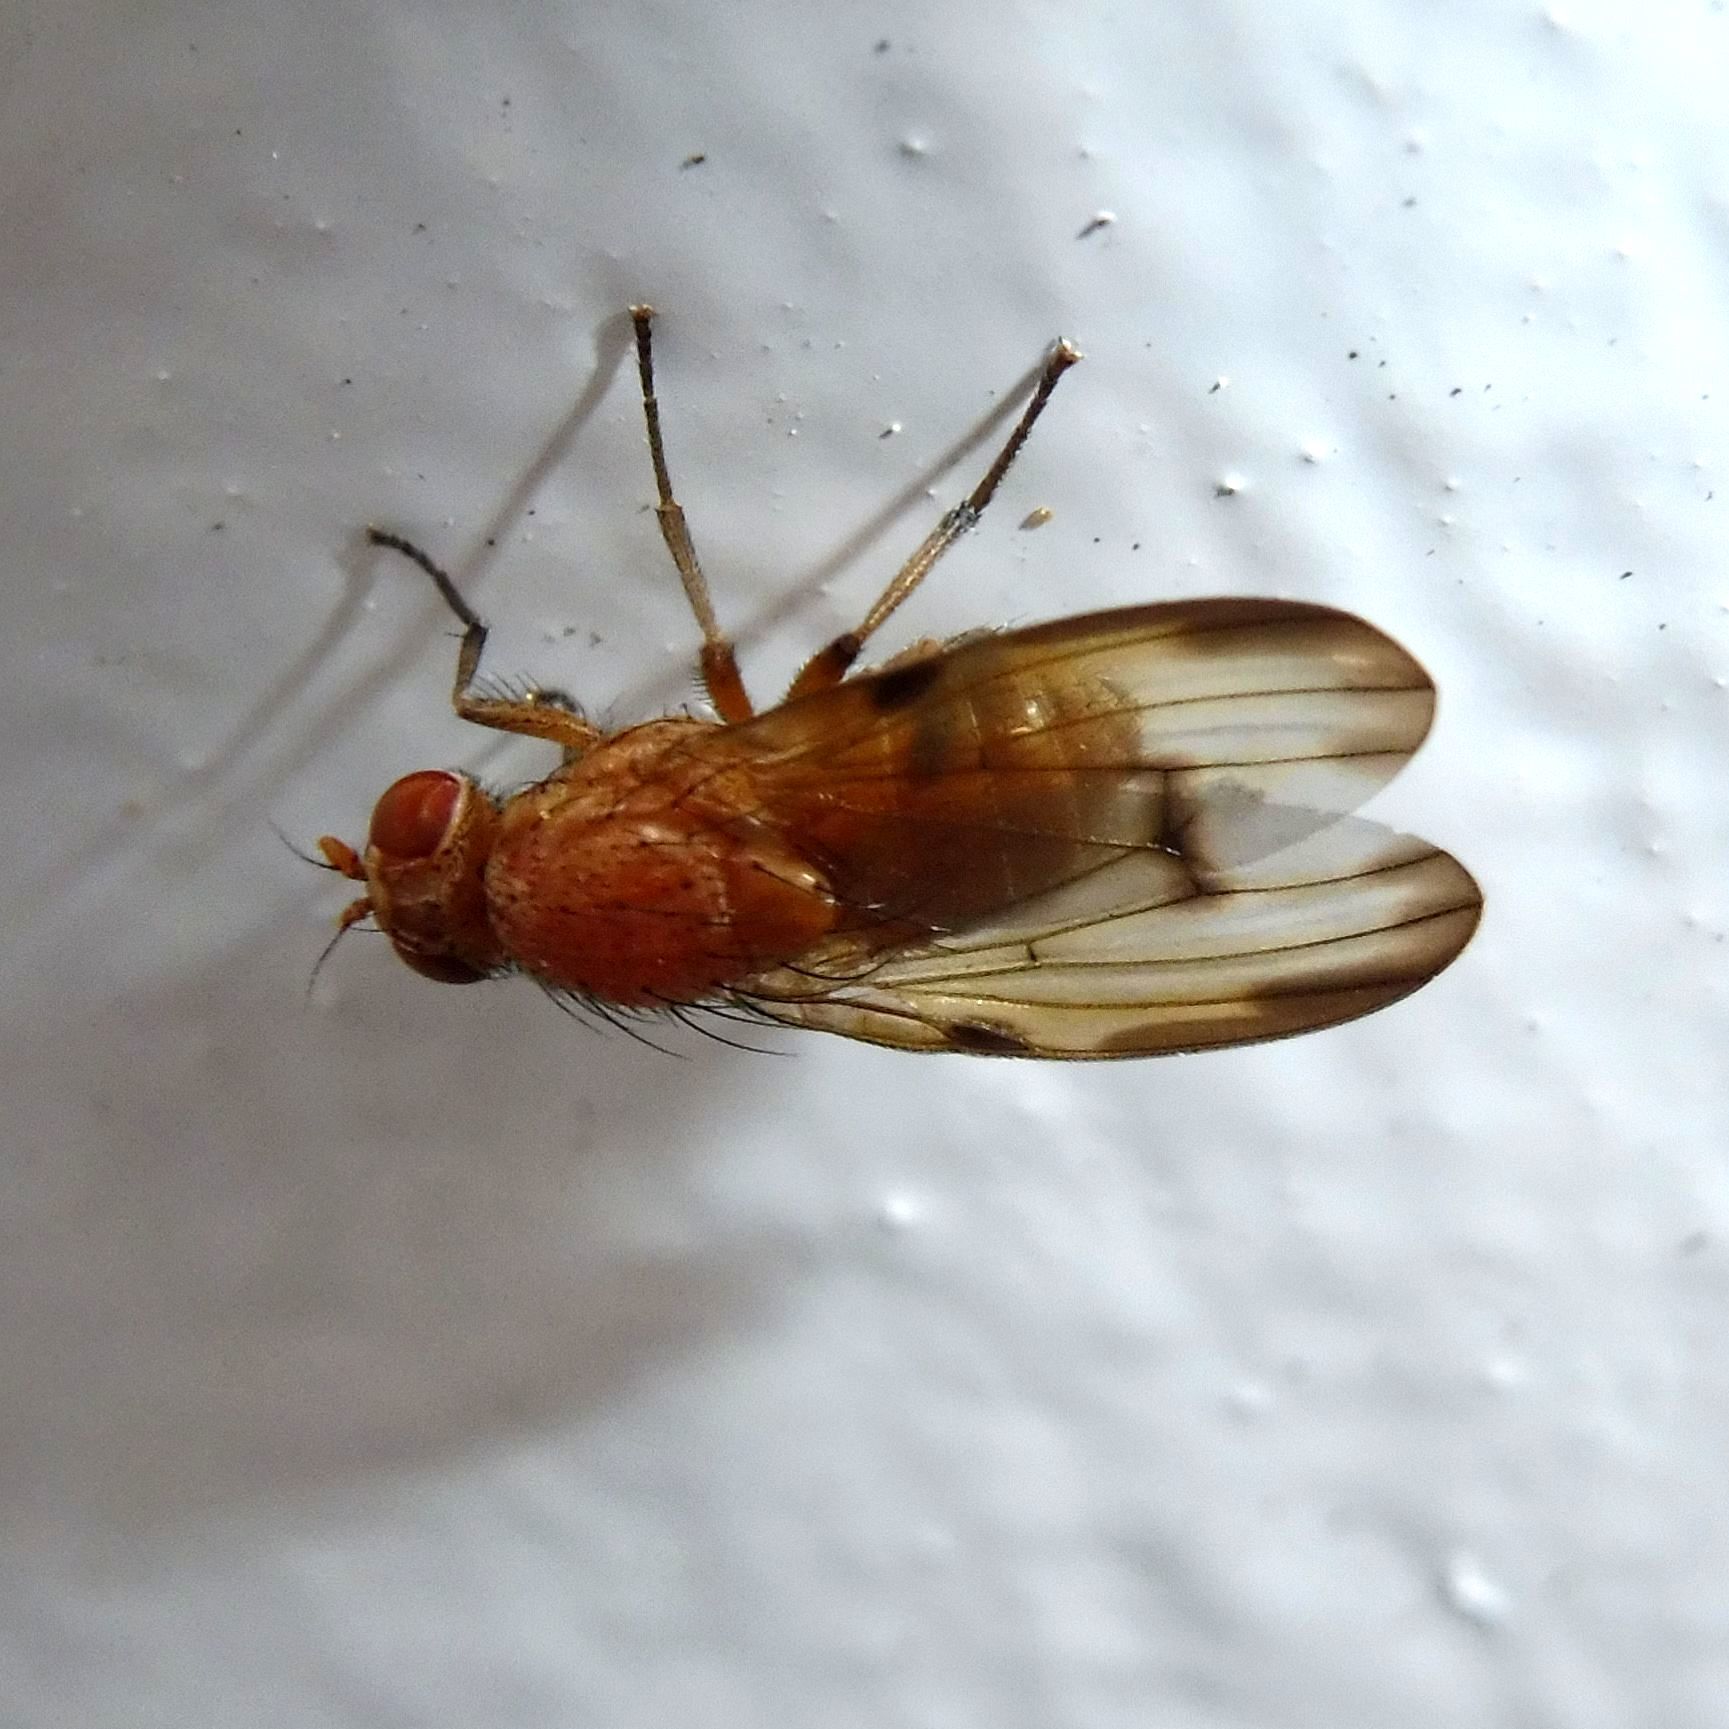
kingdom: Animalia
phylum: Arthropoda
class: Insecta
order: Diptera
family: Lauxaniidae
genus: Minettia
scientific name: Minettia inusta
